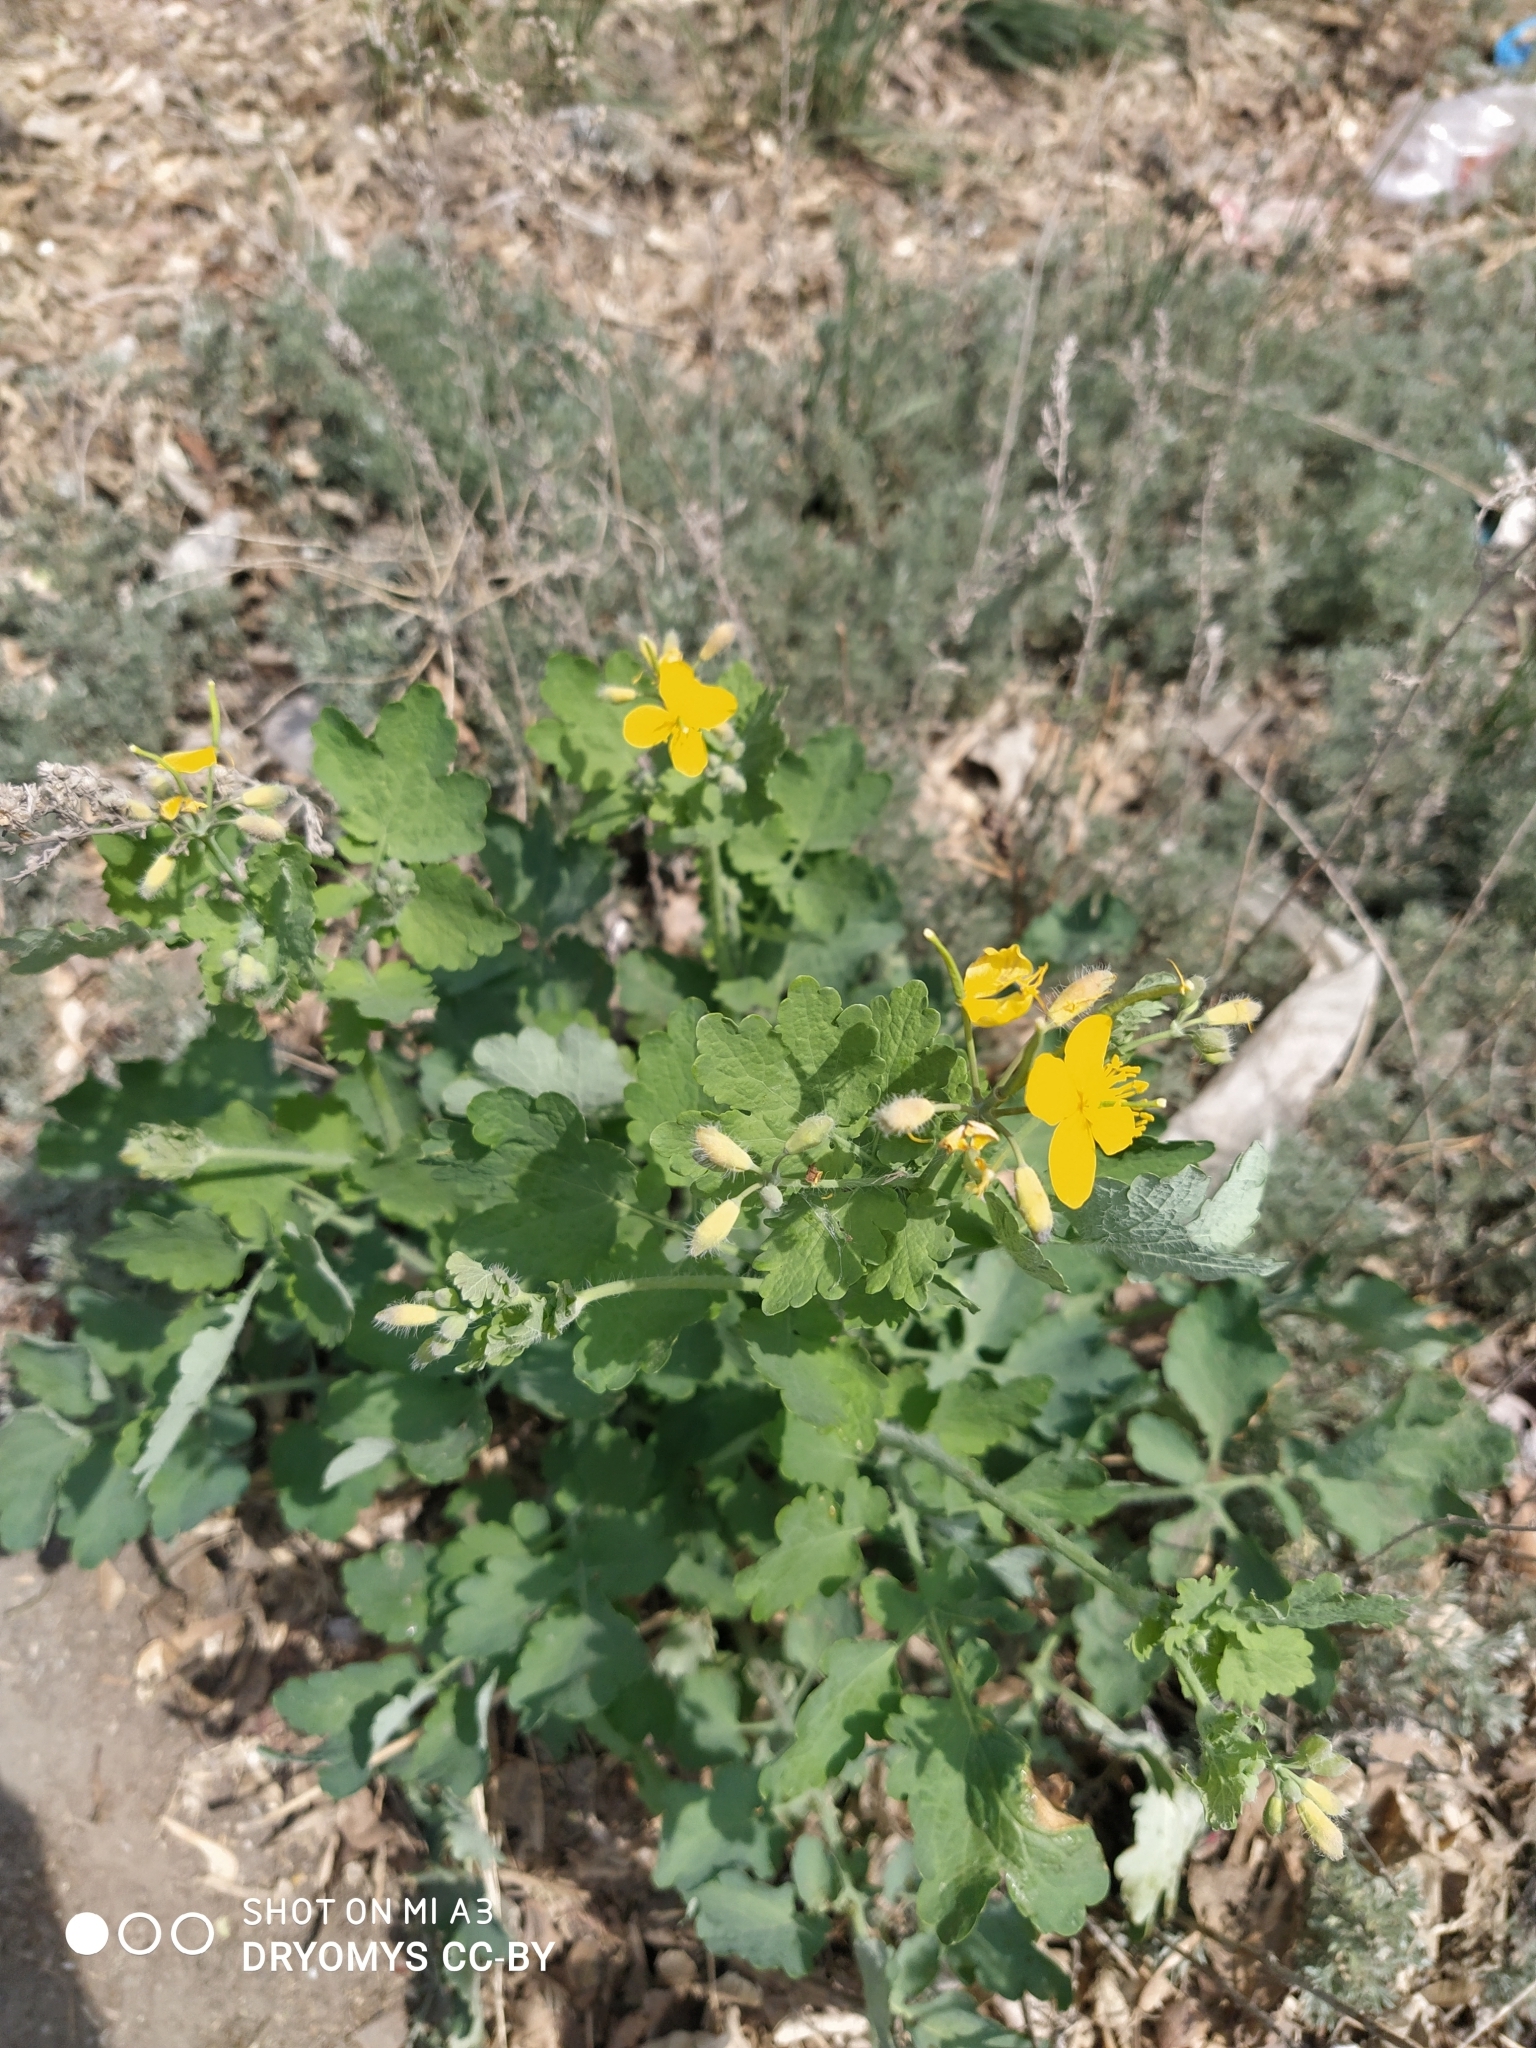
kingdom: Plantae
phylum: Tracheophyta
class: Magnoliopsida
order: Ranunculales
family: Papaveraceae
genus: Chelidonium
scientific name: Chelidonium majus
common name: Greater celandine
